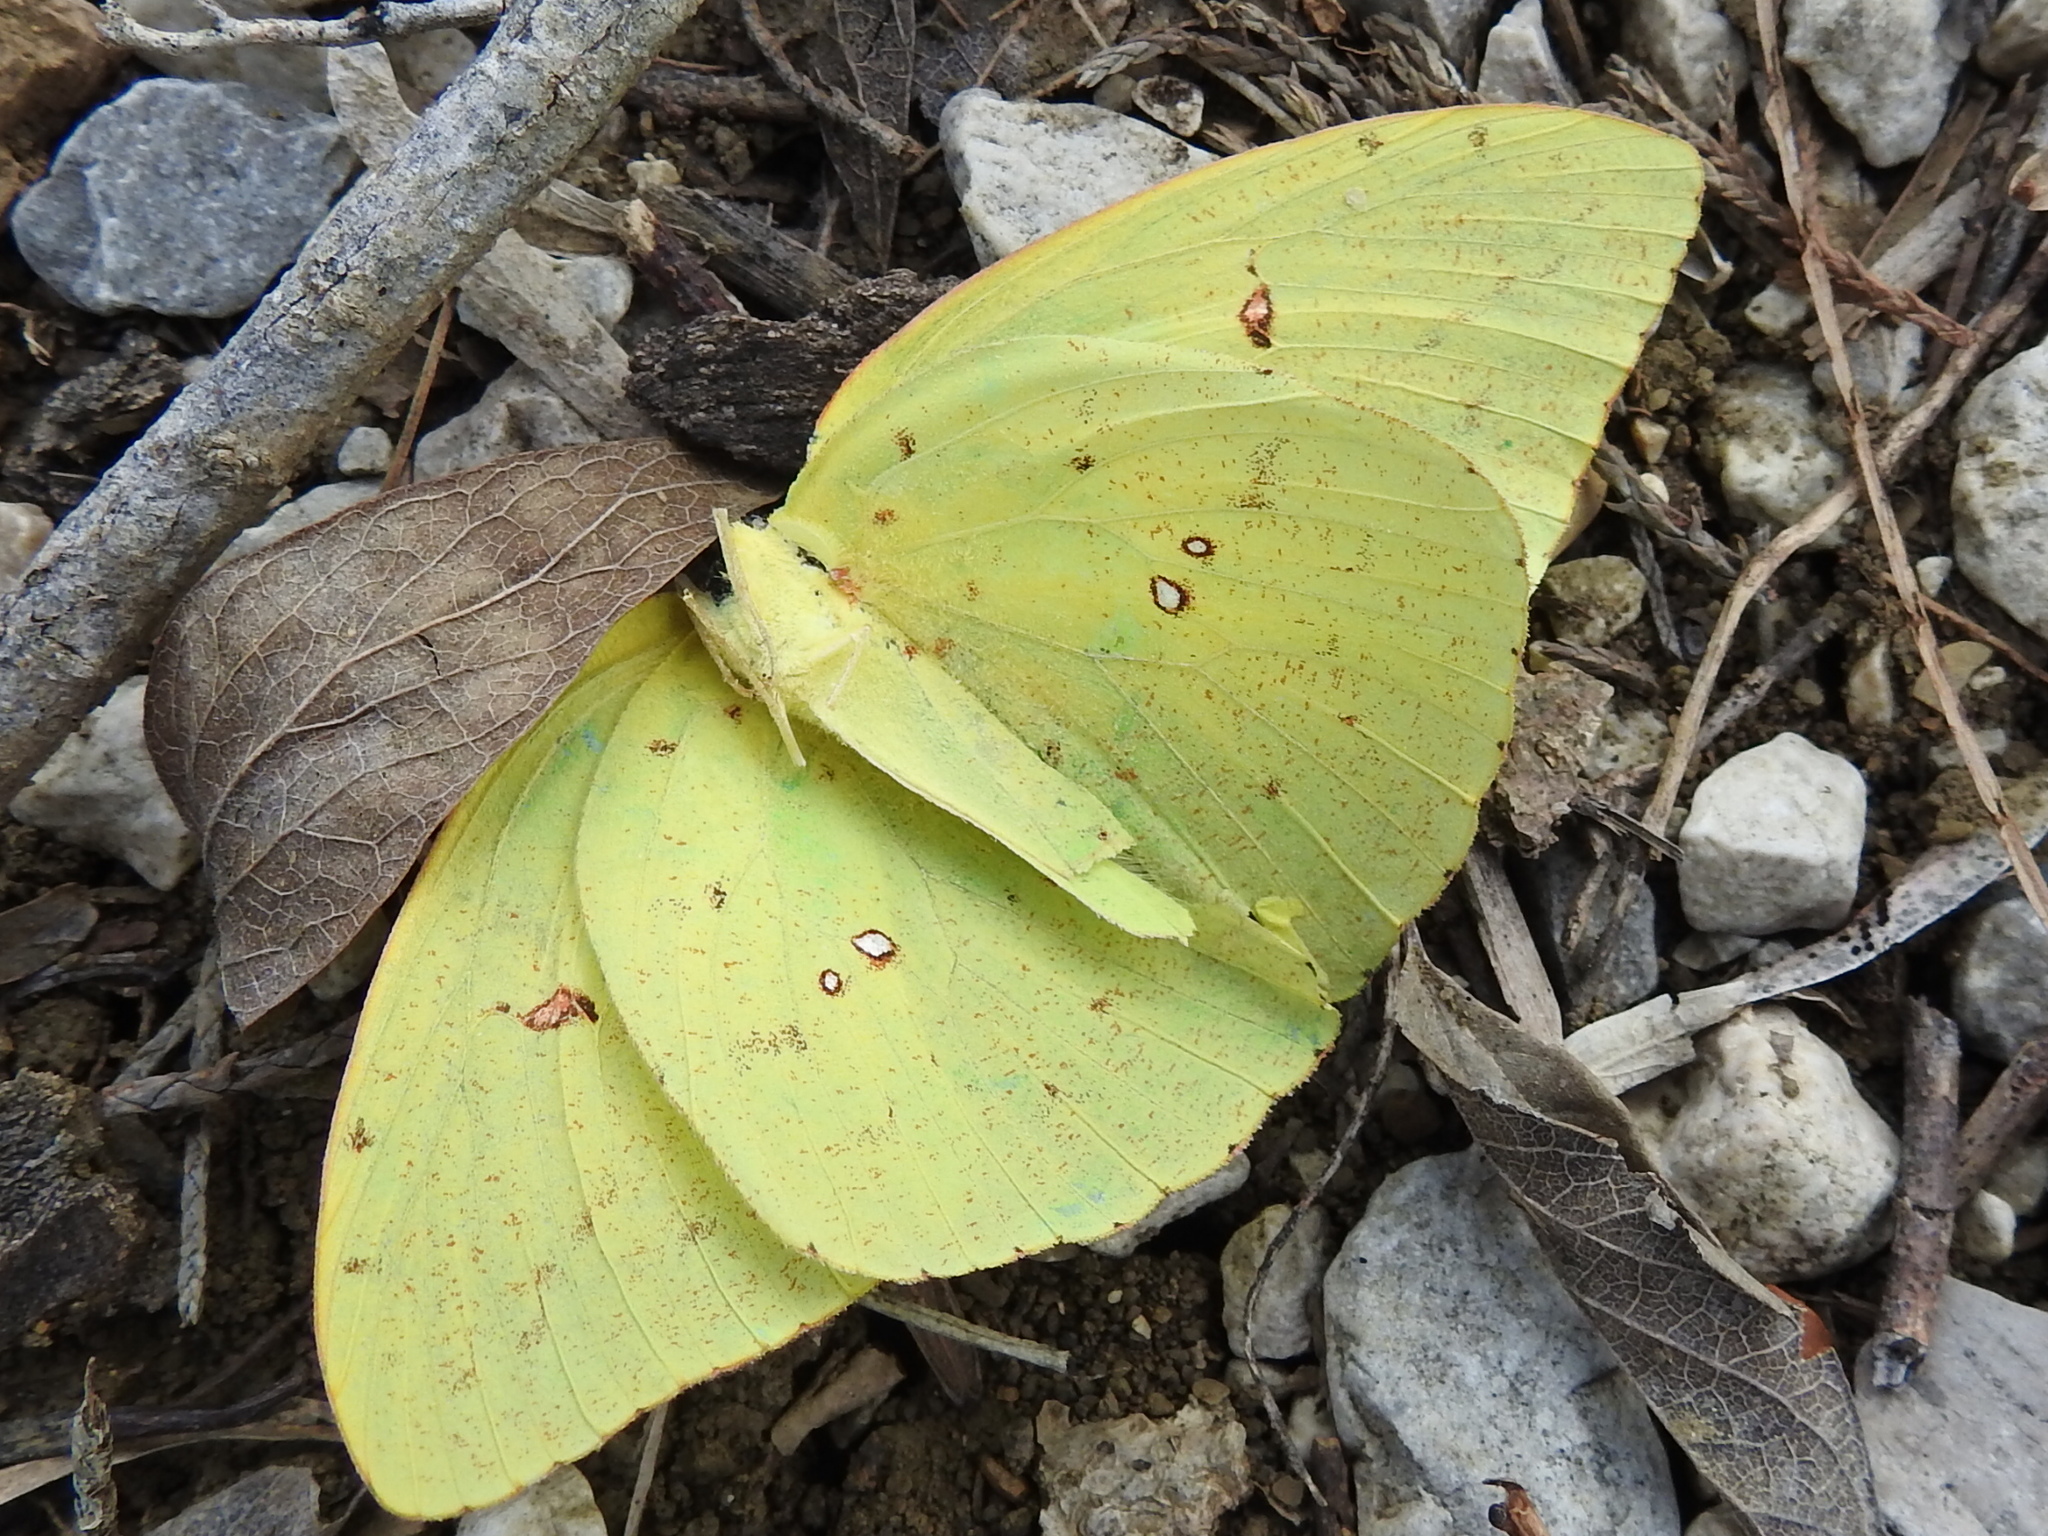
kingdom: Animalia
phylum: Arthropoda
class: Insecta
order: Lepidoptera
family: Pieridae
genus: Phoebis
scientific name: Phoebis sennae
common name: Cloudless sulphur
